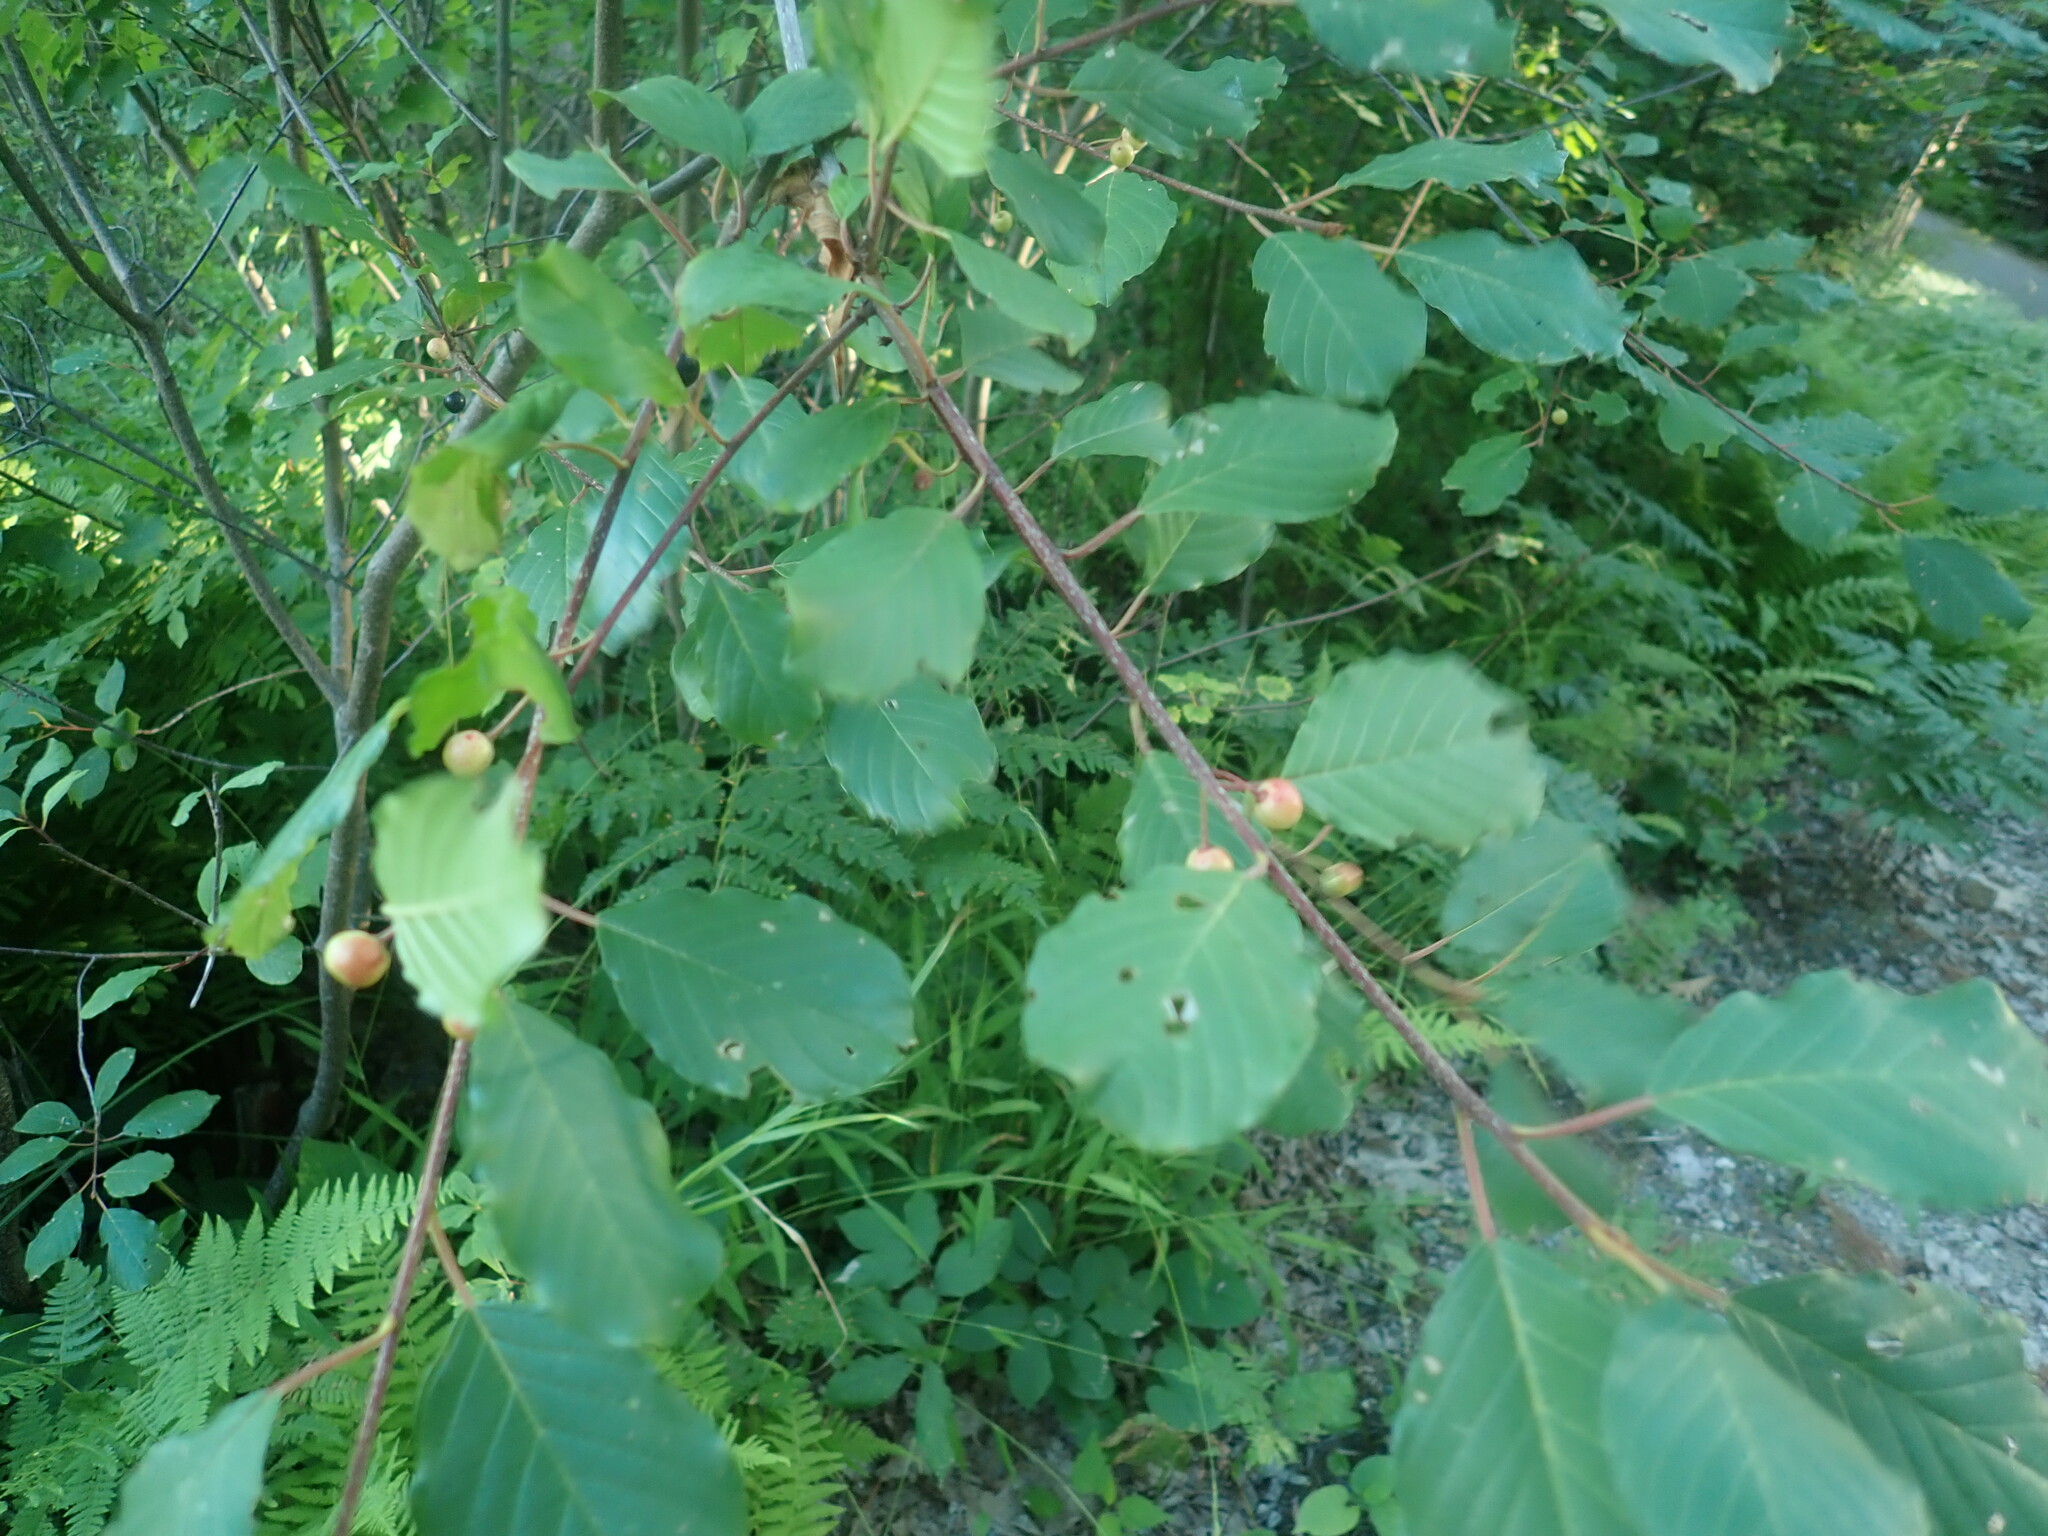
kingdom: Plantae
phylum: Tracheophyta
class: Magnoliopsida
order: Rosales
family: Rhamnaceae
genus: Frangula
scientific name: Frangula alnus
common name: Alder buckthorn
